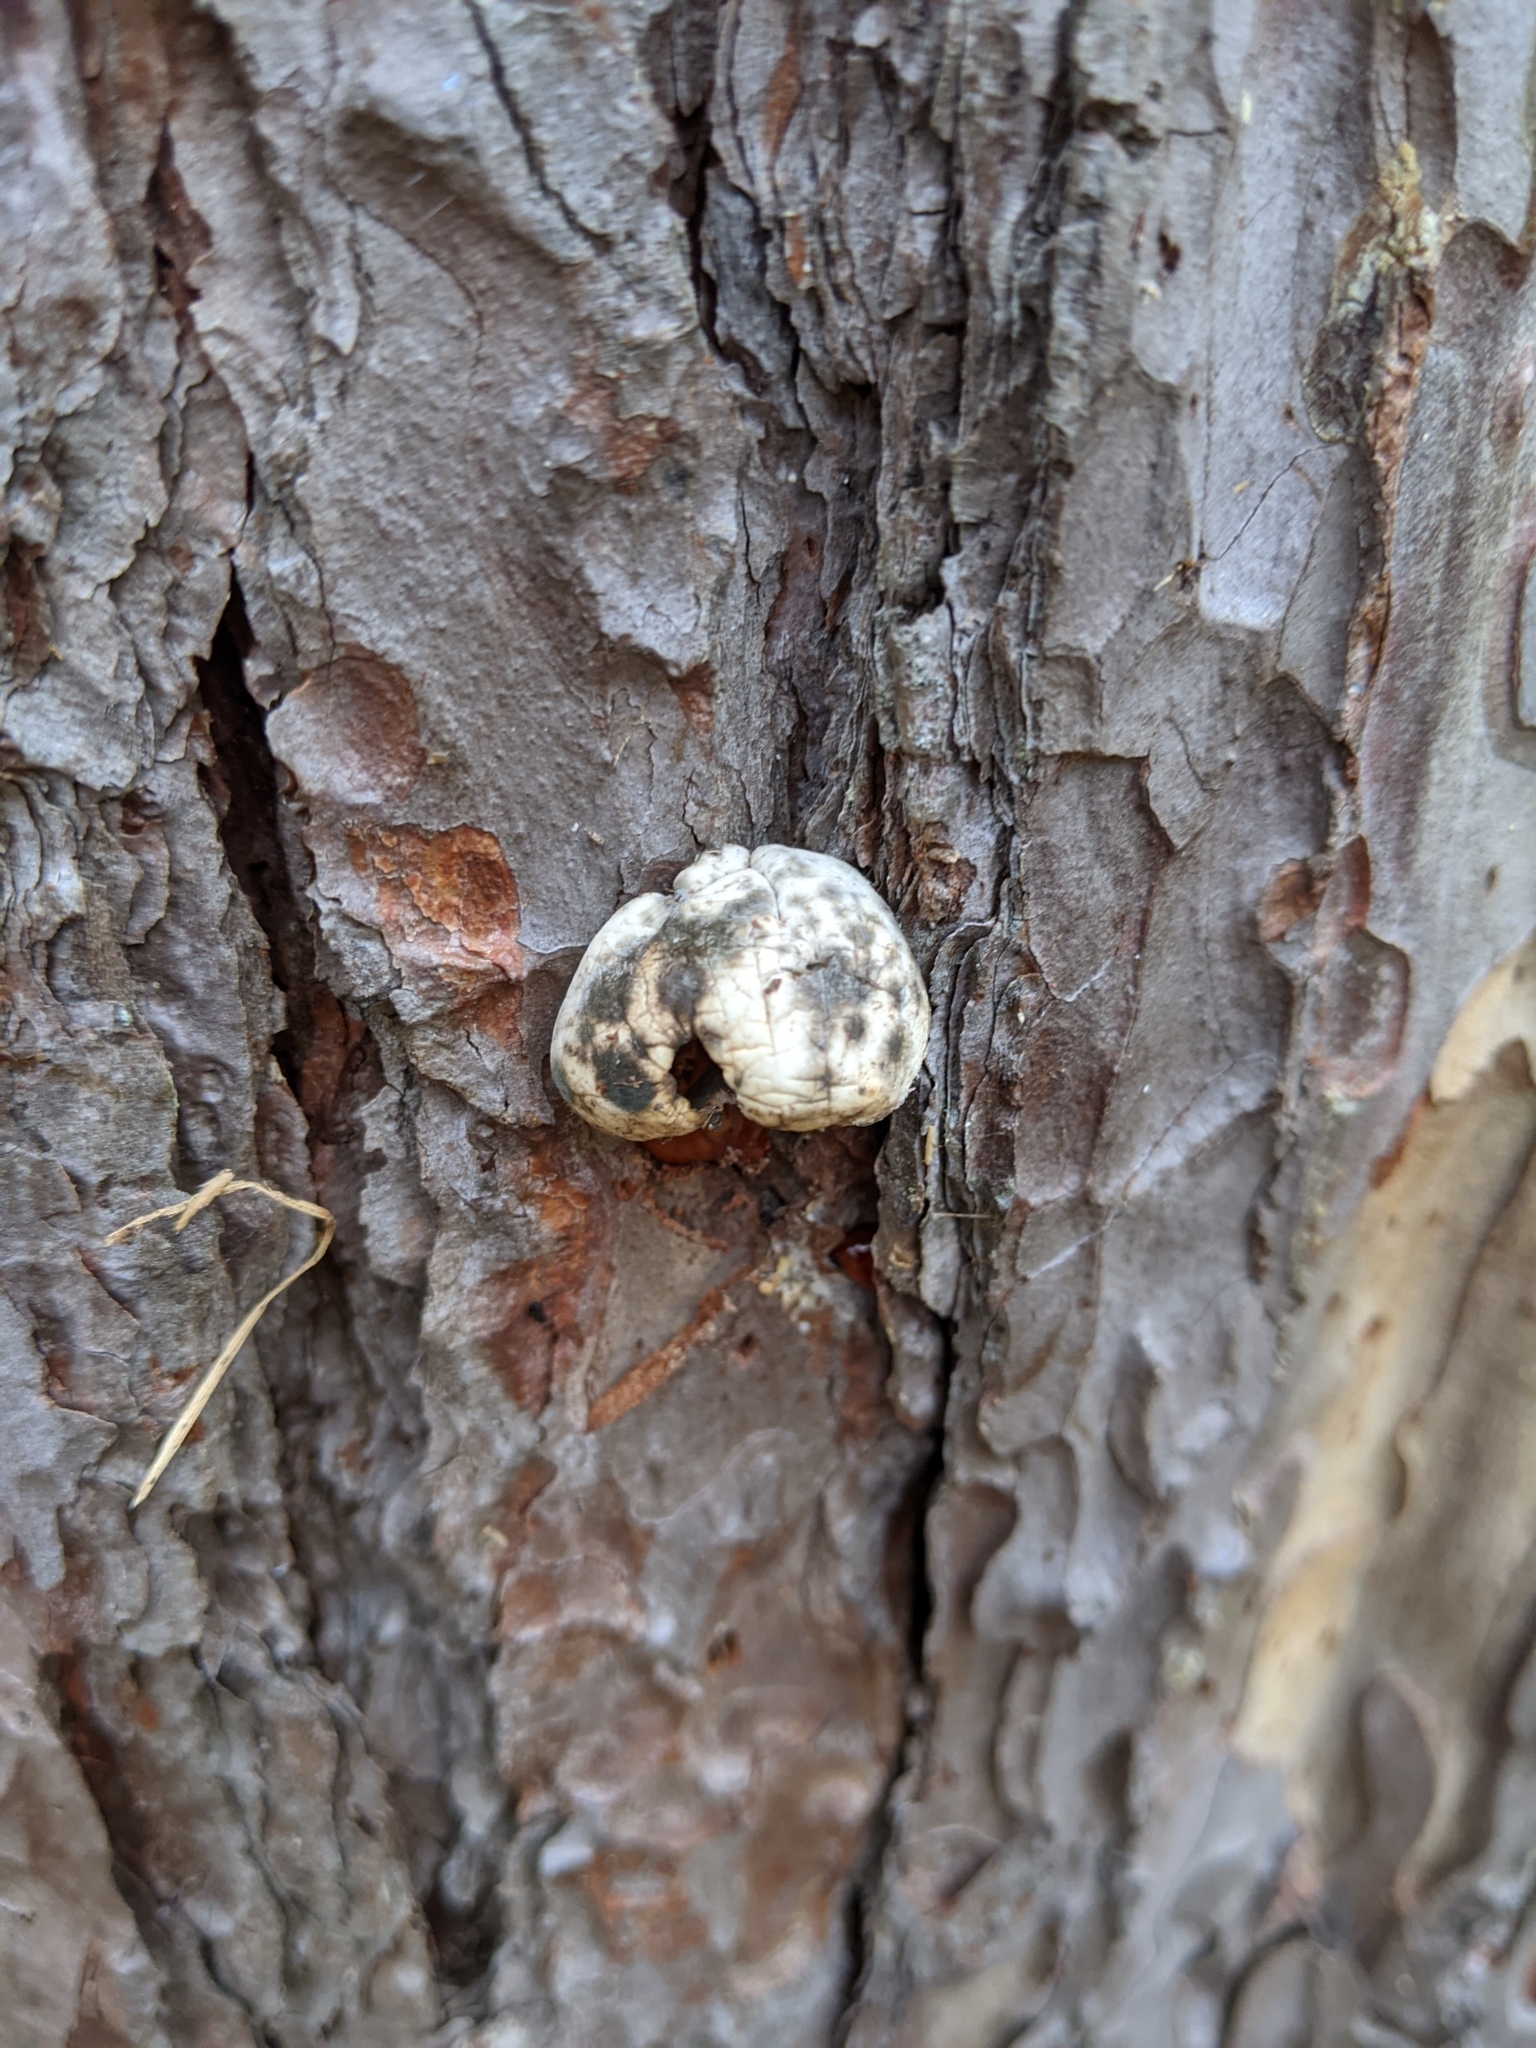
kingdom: Fungi
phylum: Basidiomycota
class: Agaricomycetes
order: Polyporales
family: Polyporaceae
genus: Cryptoporus
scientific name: Cryptoporus volvatus
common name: Veiled polypore
